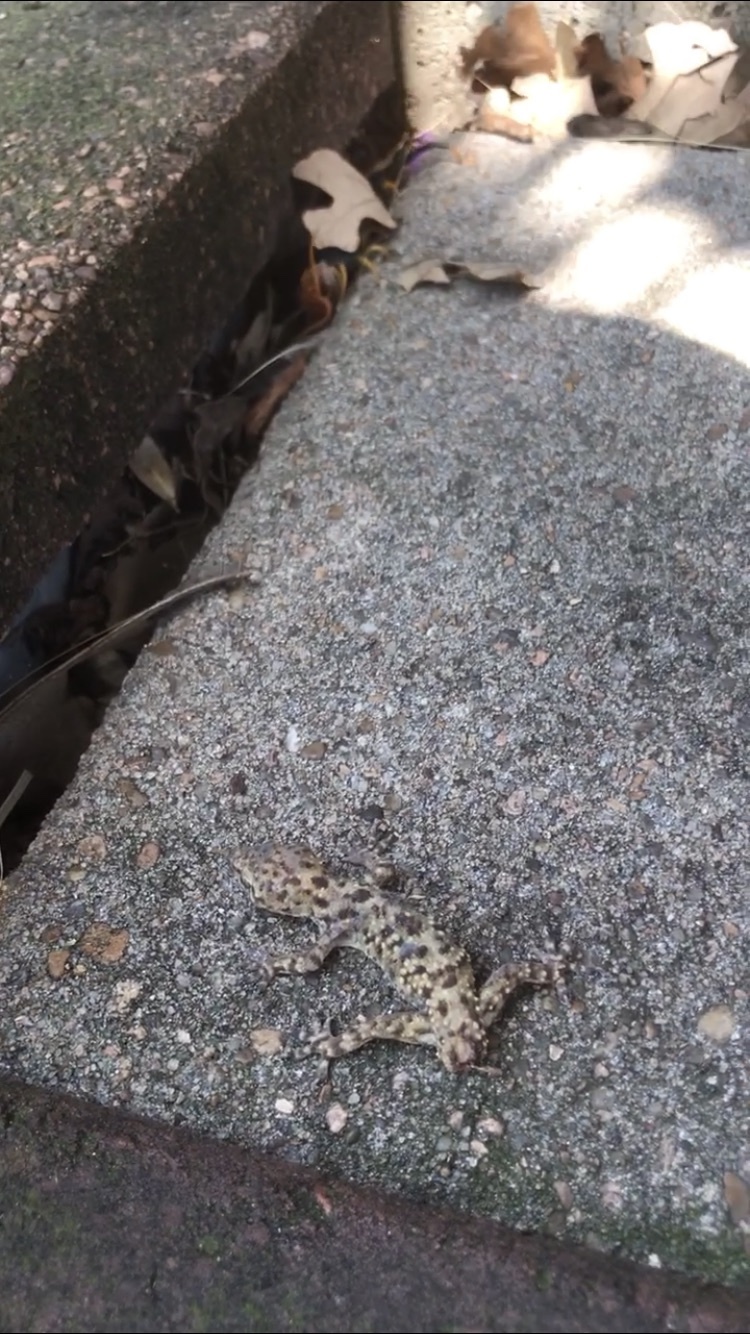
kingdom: Animalia
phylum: Chordata
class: Squamata
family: Gekkonidae
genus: Hemidactylus
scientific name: Hemidactylus turcicus
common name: Turkish gecko
